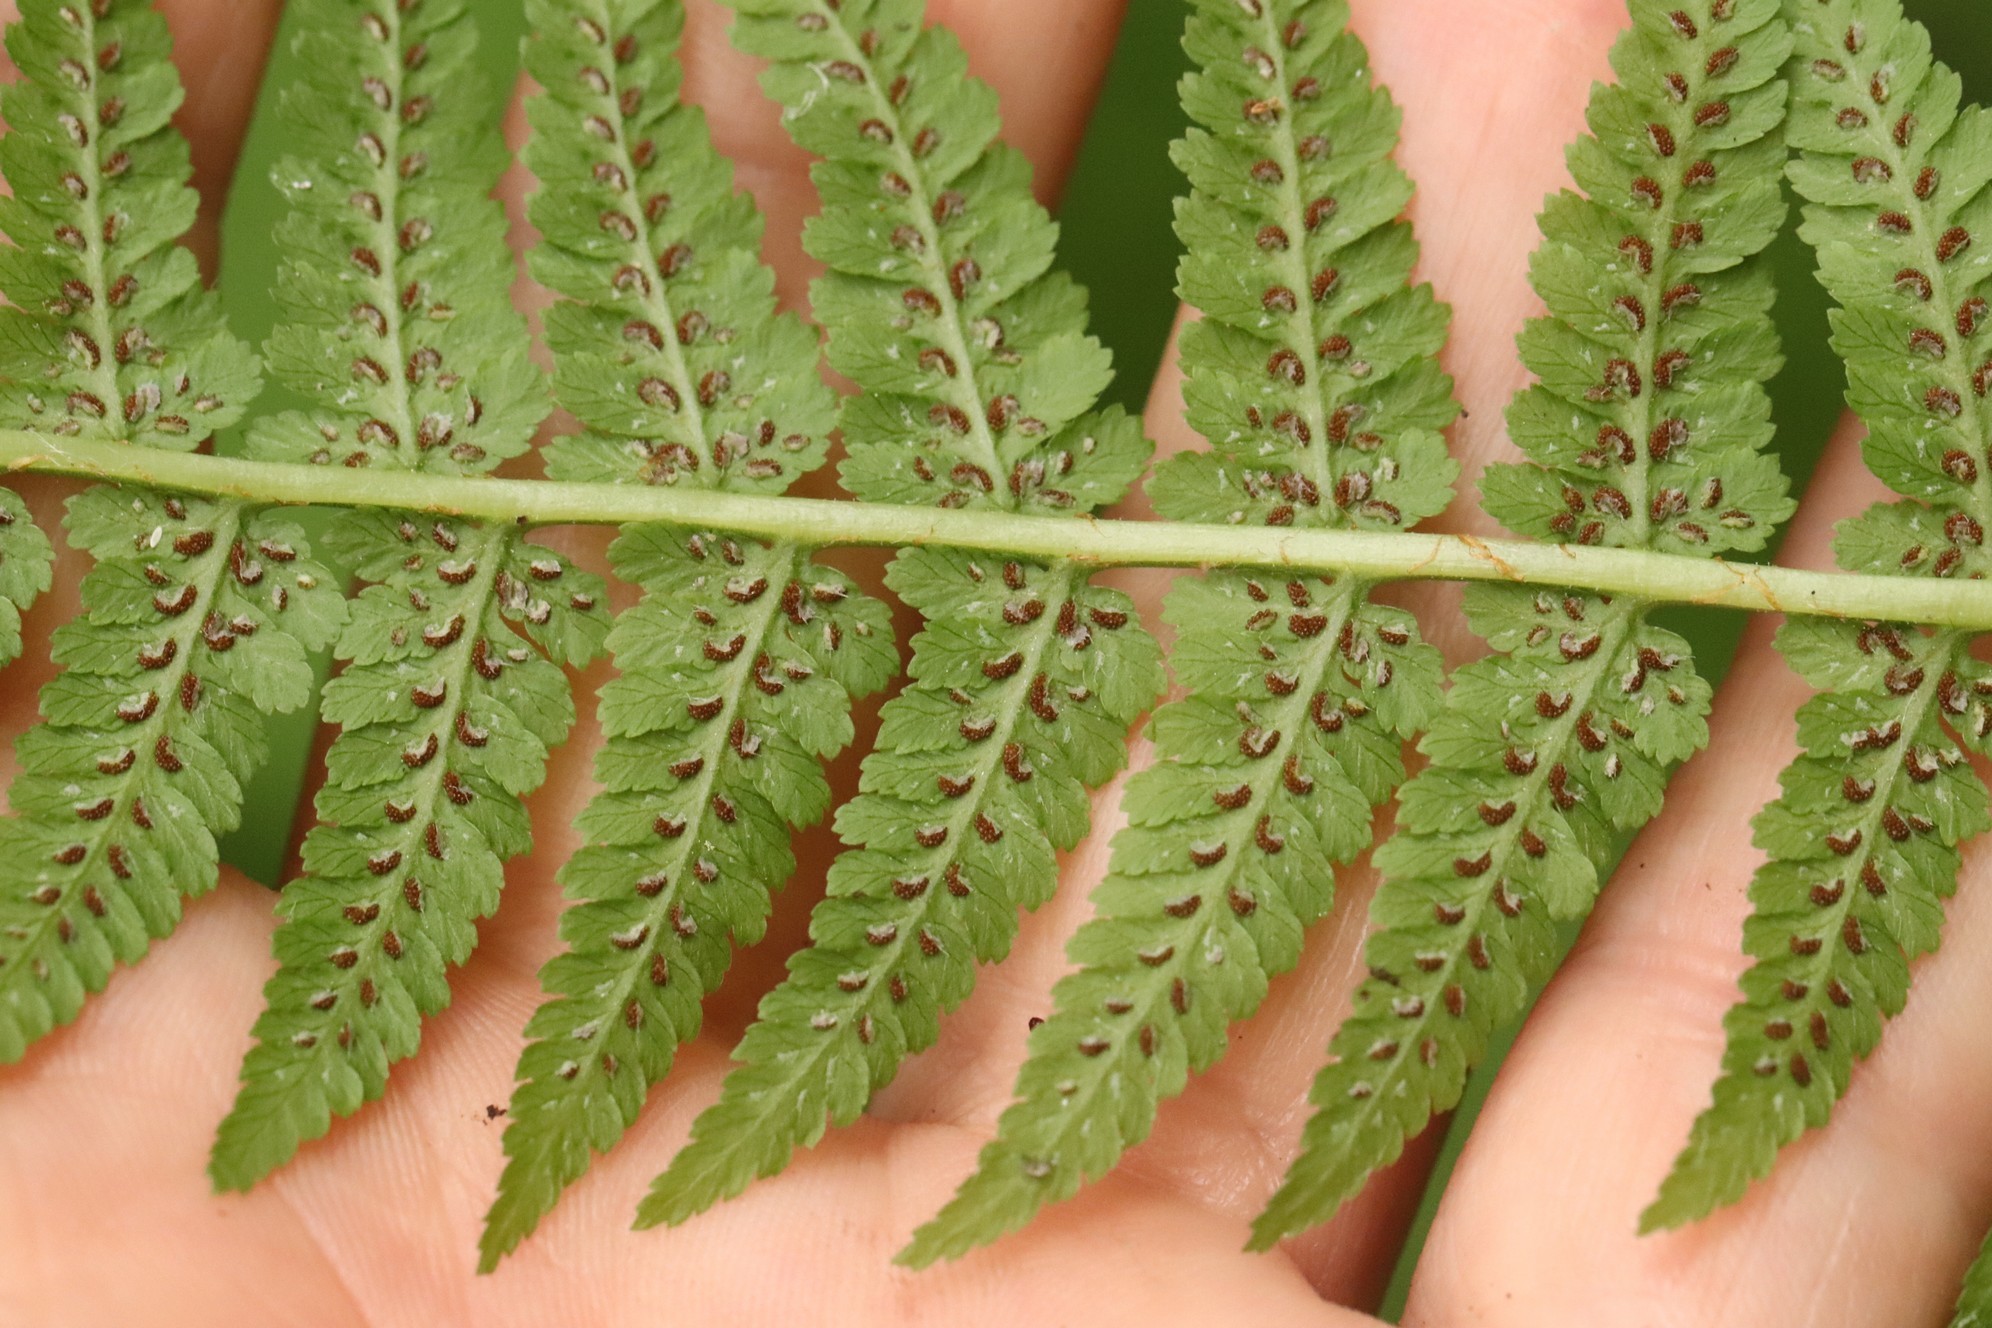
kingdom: Plantae
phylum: Tracheophyta
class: Polypodiopsida
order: Polypodiales
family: Athyriaceae
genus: Athyrium
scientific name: Athyrium filix-femina
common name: Lady fern
